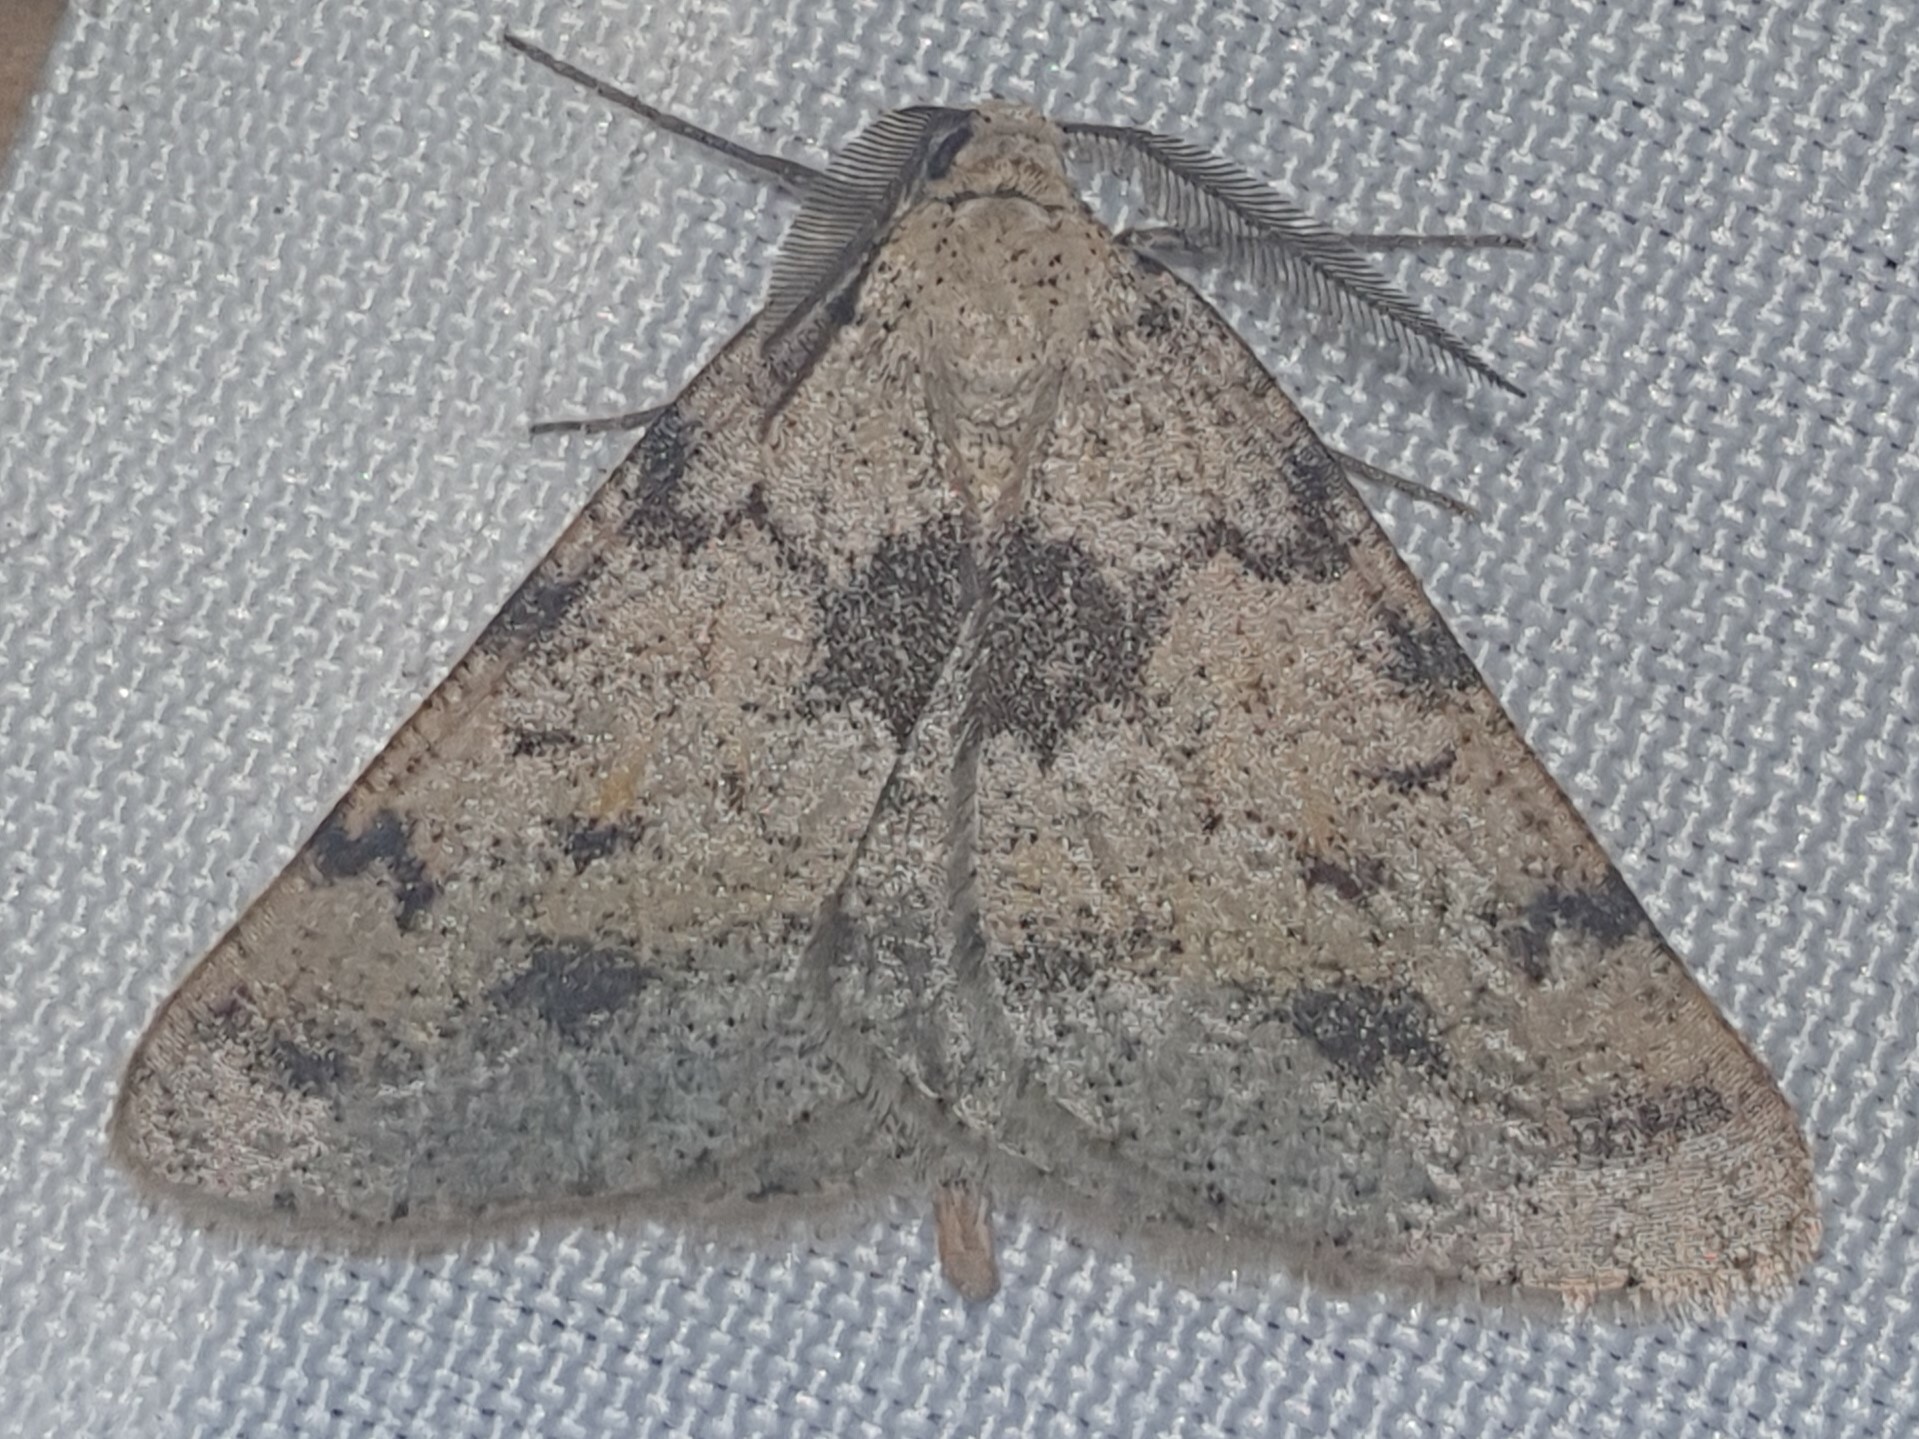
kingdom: Animalia
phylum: Arthropoda
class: Insecta
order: Lepidoptera
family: Geometridae
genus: Isturgia
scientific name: Isturgia miniosaria
